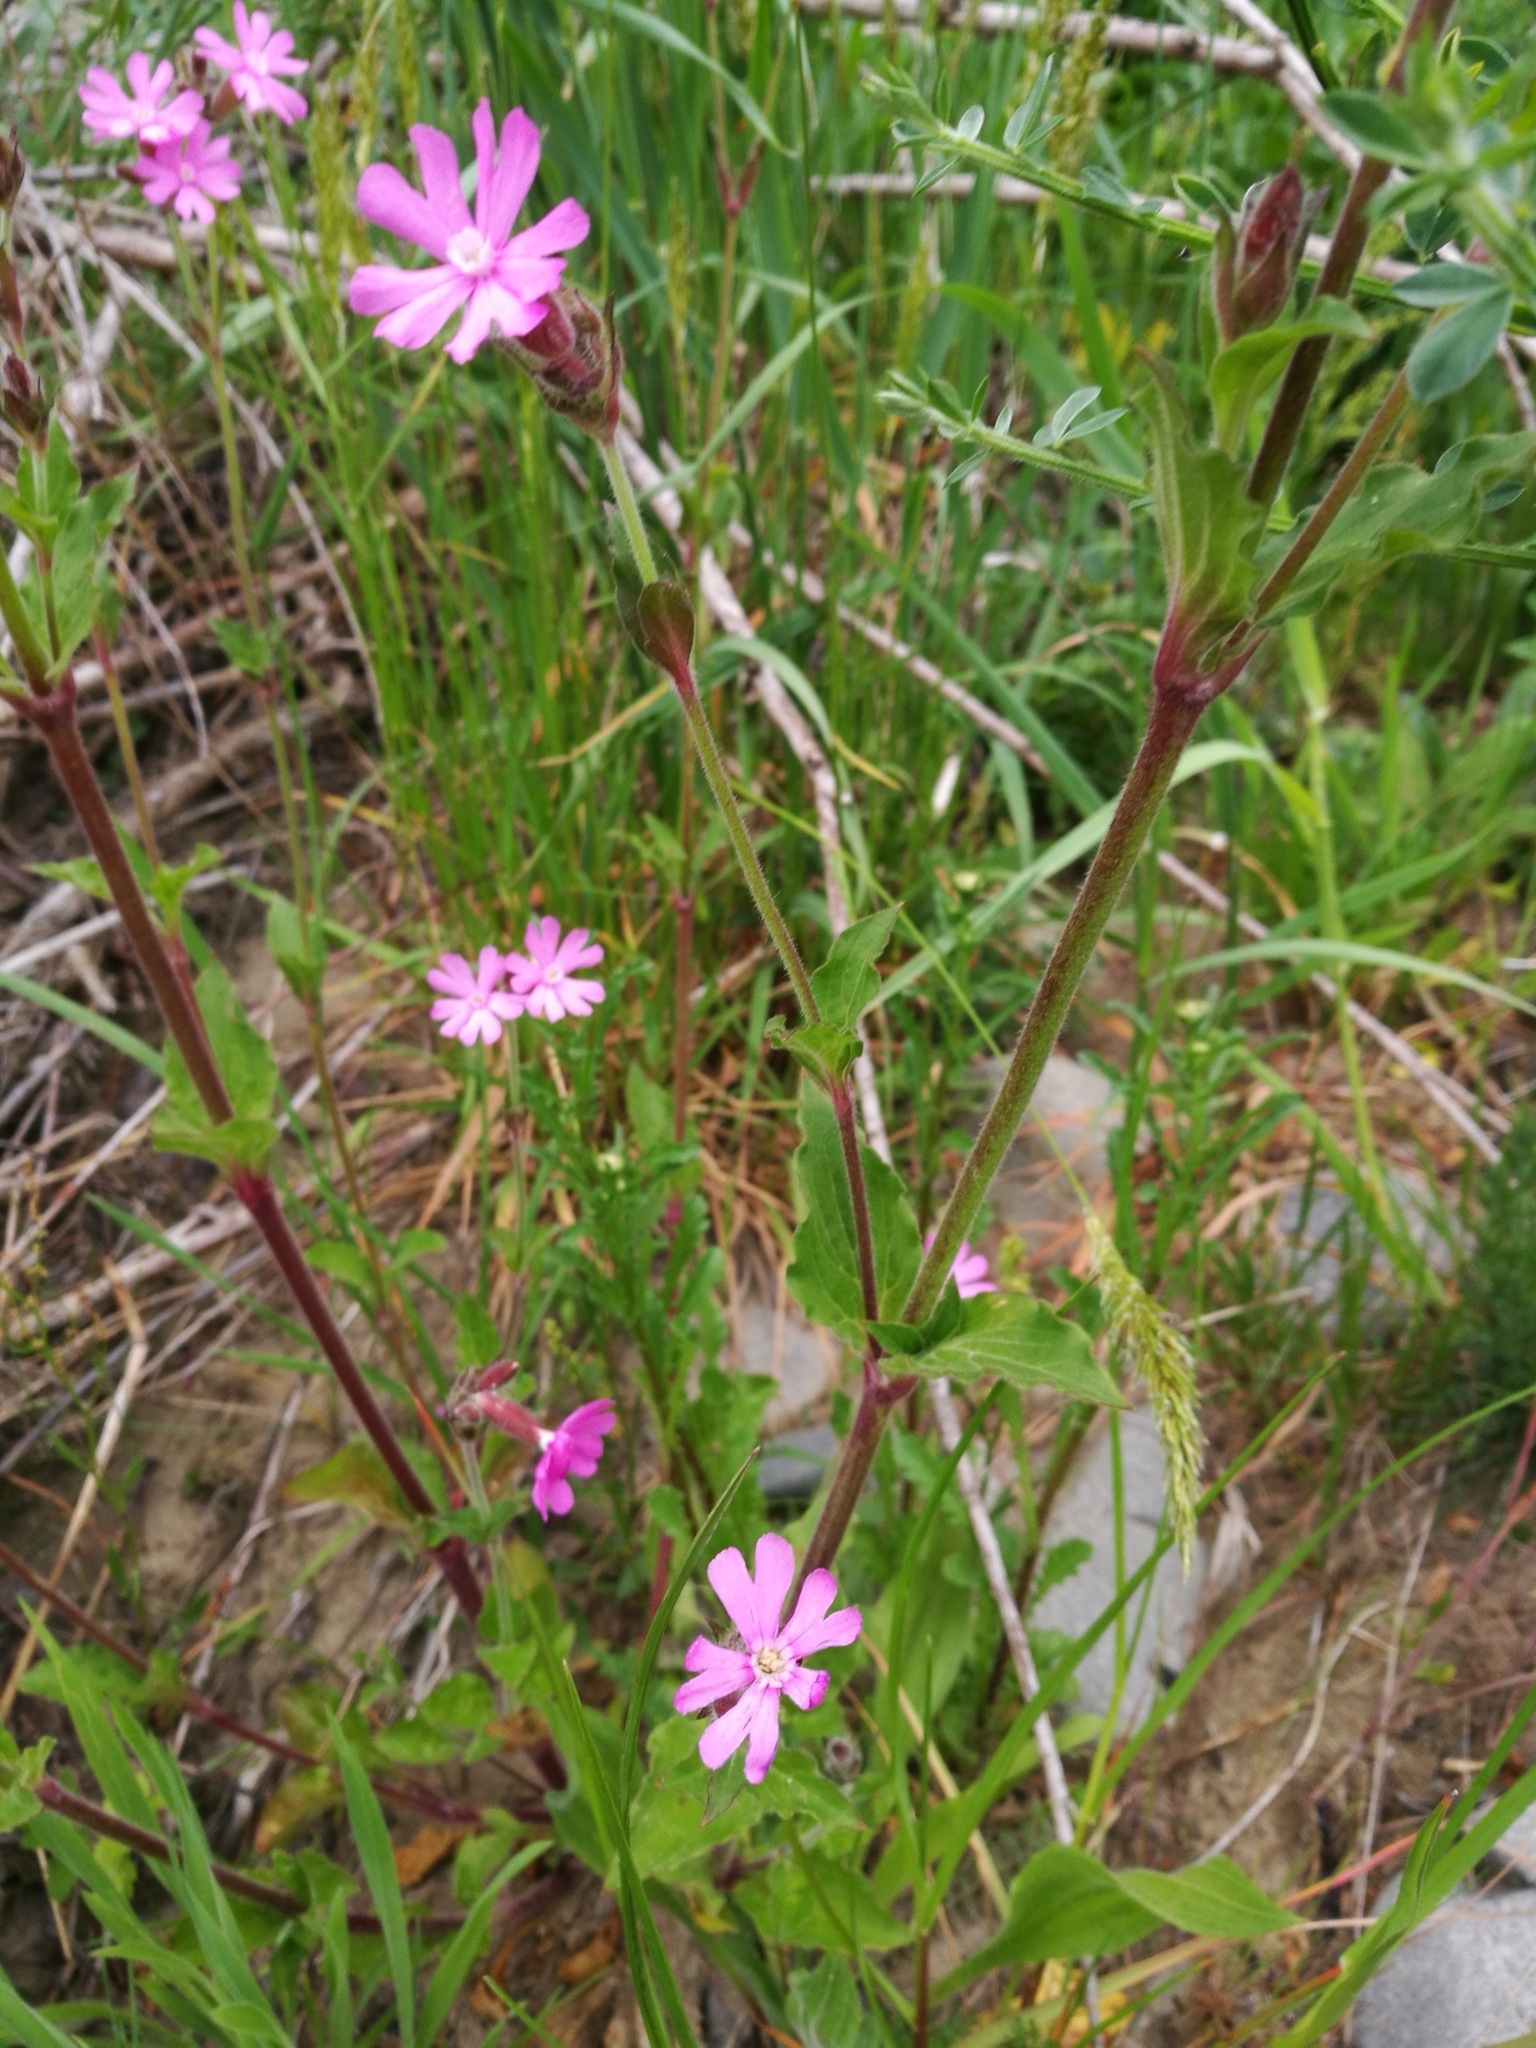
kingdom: Plantae
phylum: Tracheophyta
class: Magnoliopsida
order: Caryophyllales
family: Caryophyllaceae
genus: Silene
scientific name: Silene dioica
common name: Red campion
